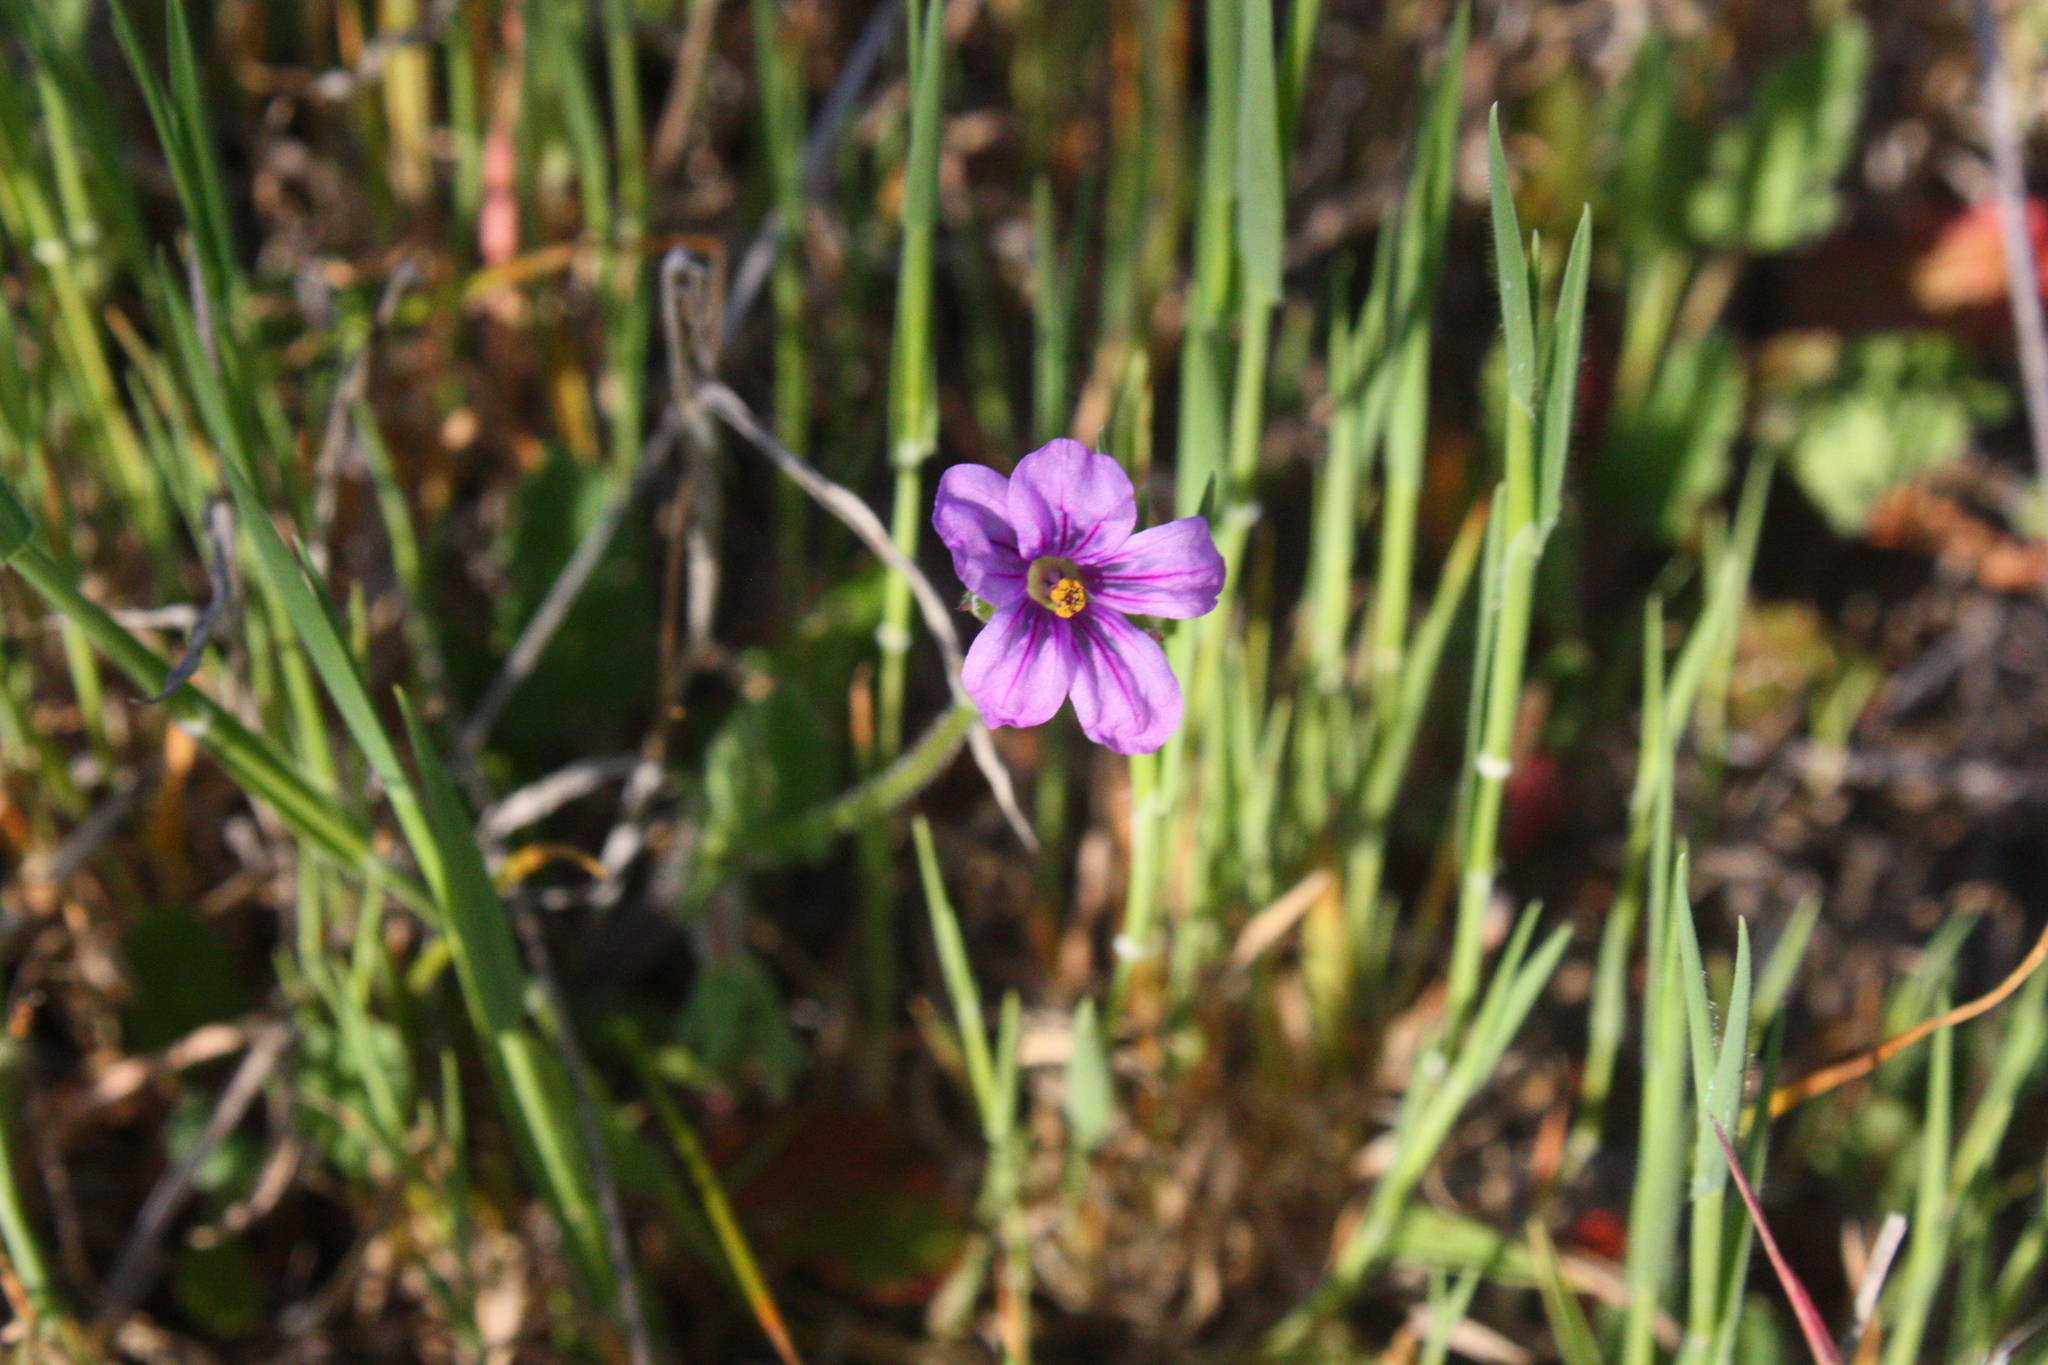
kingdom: Plantae
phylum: Tracheophyta
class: Magnoliopsida
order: Geraniales
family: Geraniaceae
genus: Erodium
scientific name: Erodium botrys
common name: Mediterranean stork's-bill
